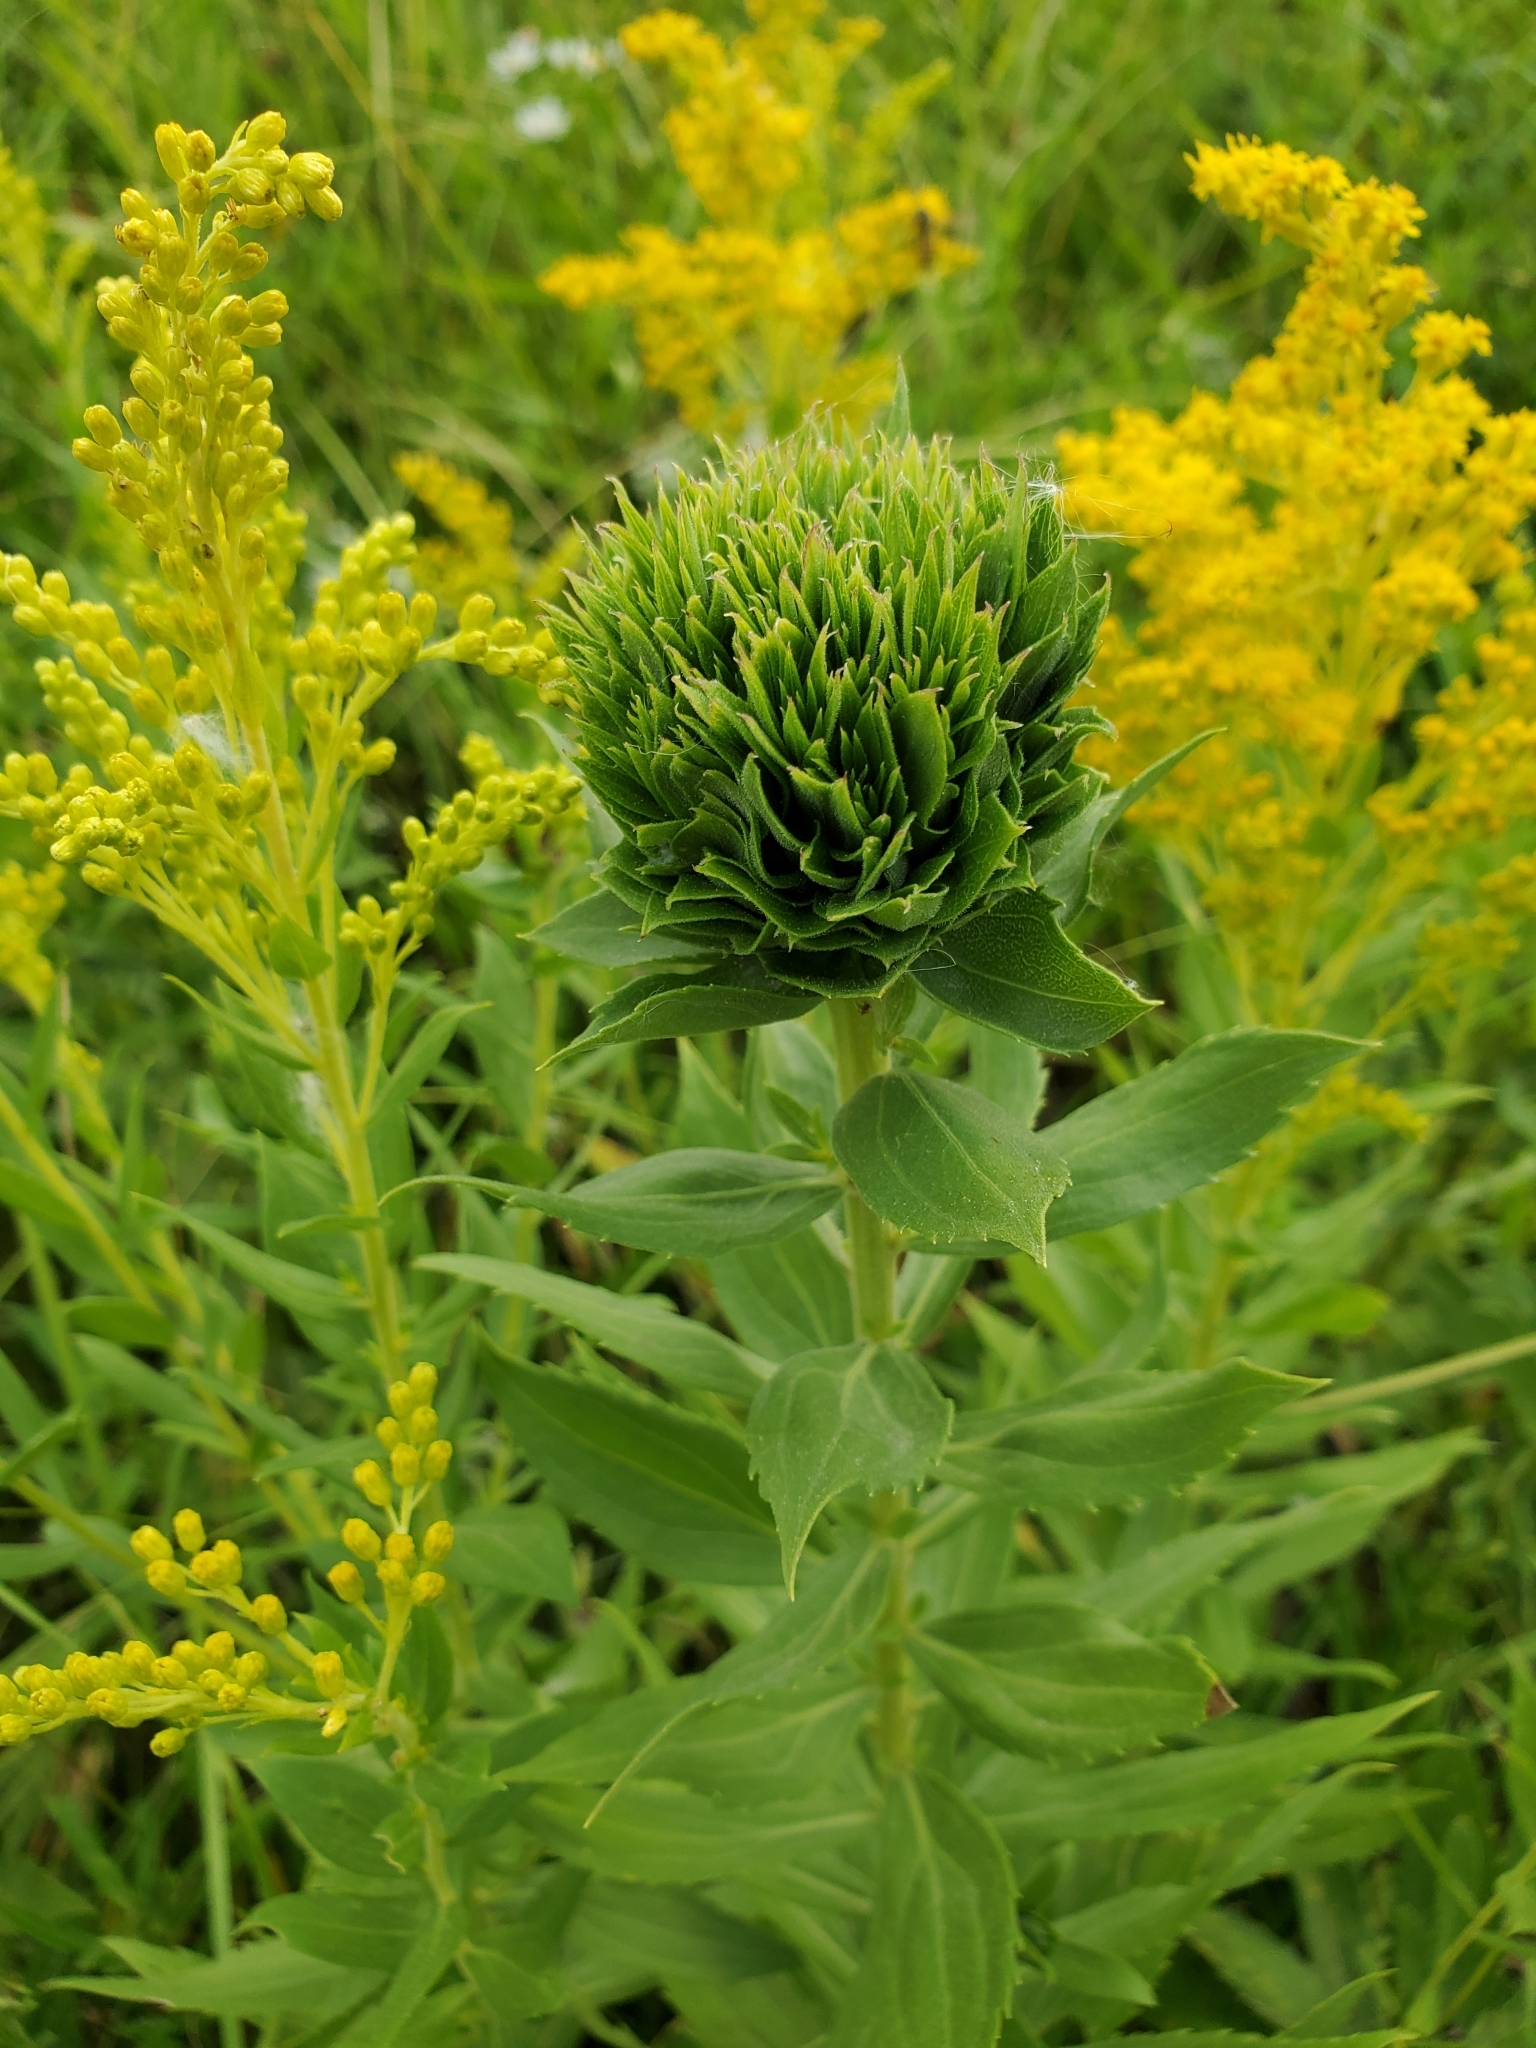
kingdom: Animalia
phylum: Arthropoda
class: Insecta
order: Diptera
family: Cecidomyiidae
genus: Rhopalomyia
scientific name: Rhopalomyia solidaginis
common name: Goldenrod bunch gall midge
